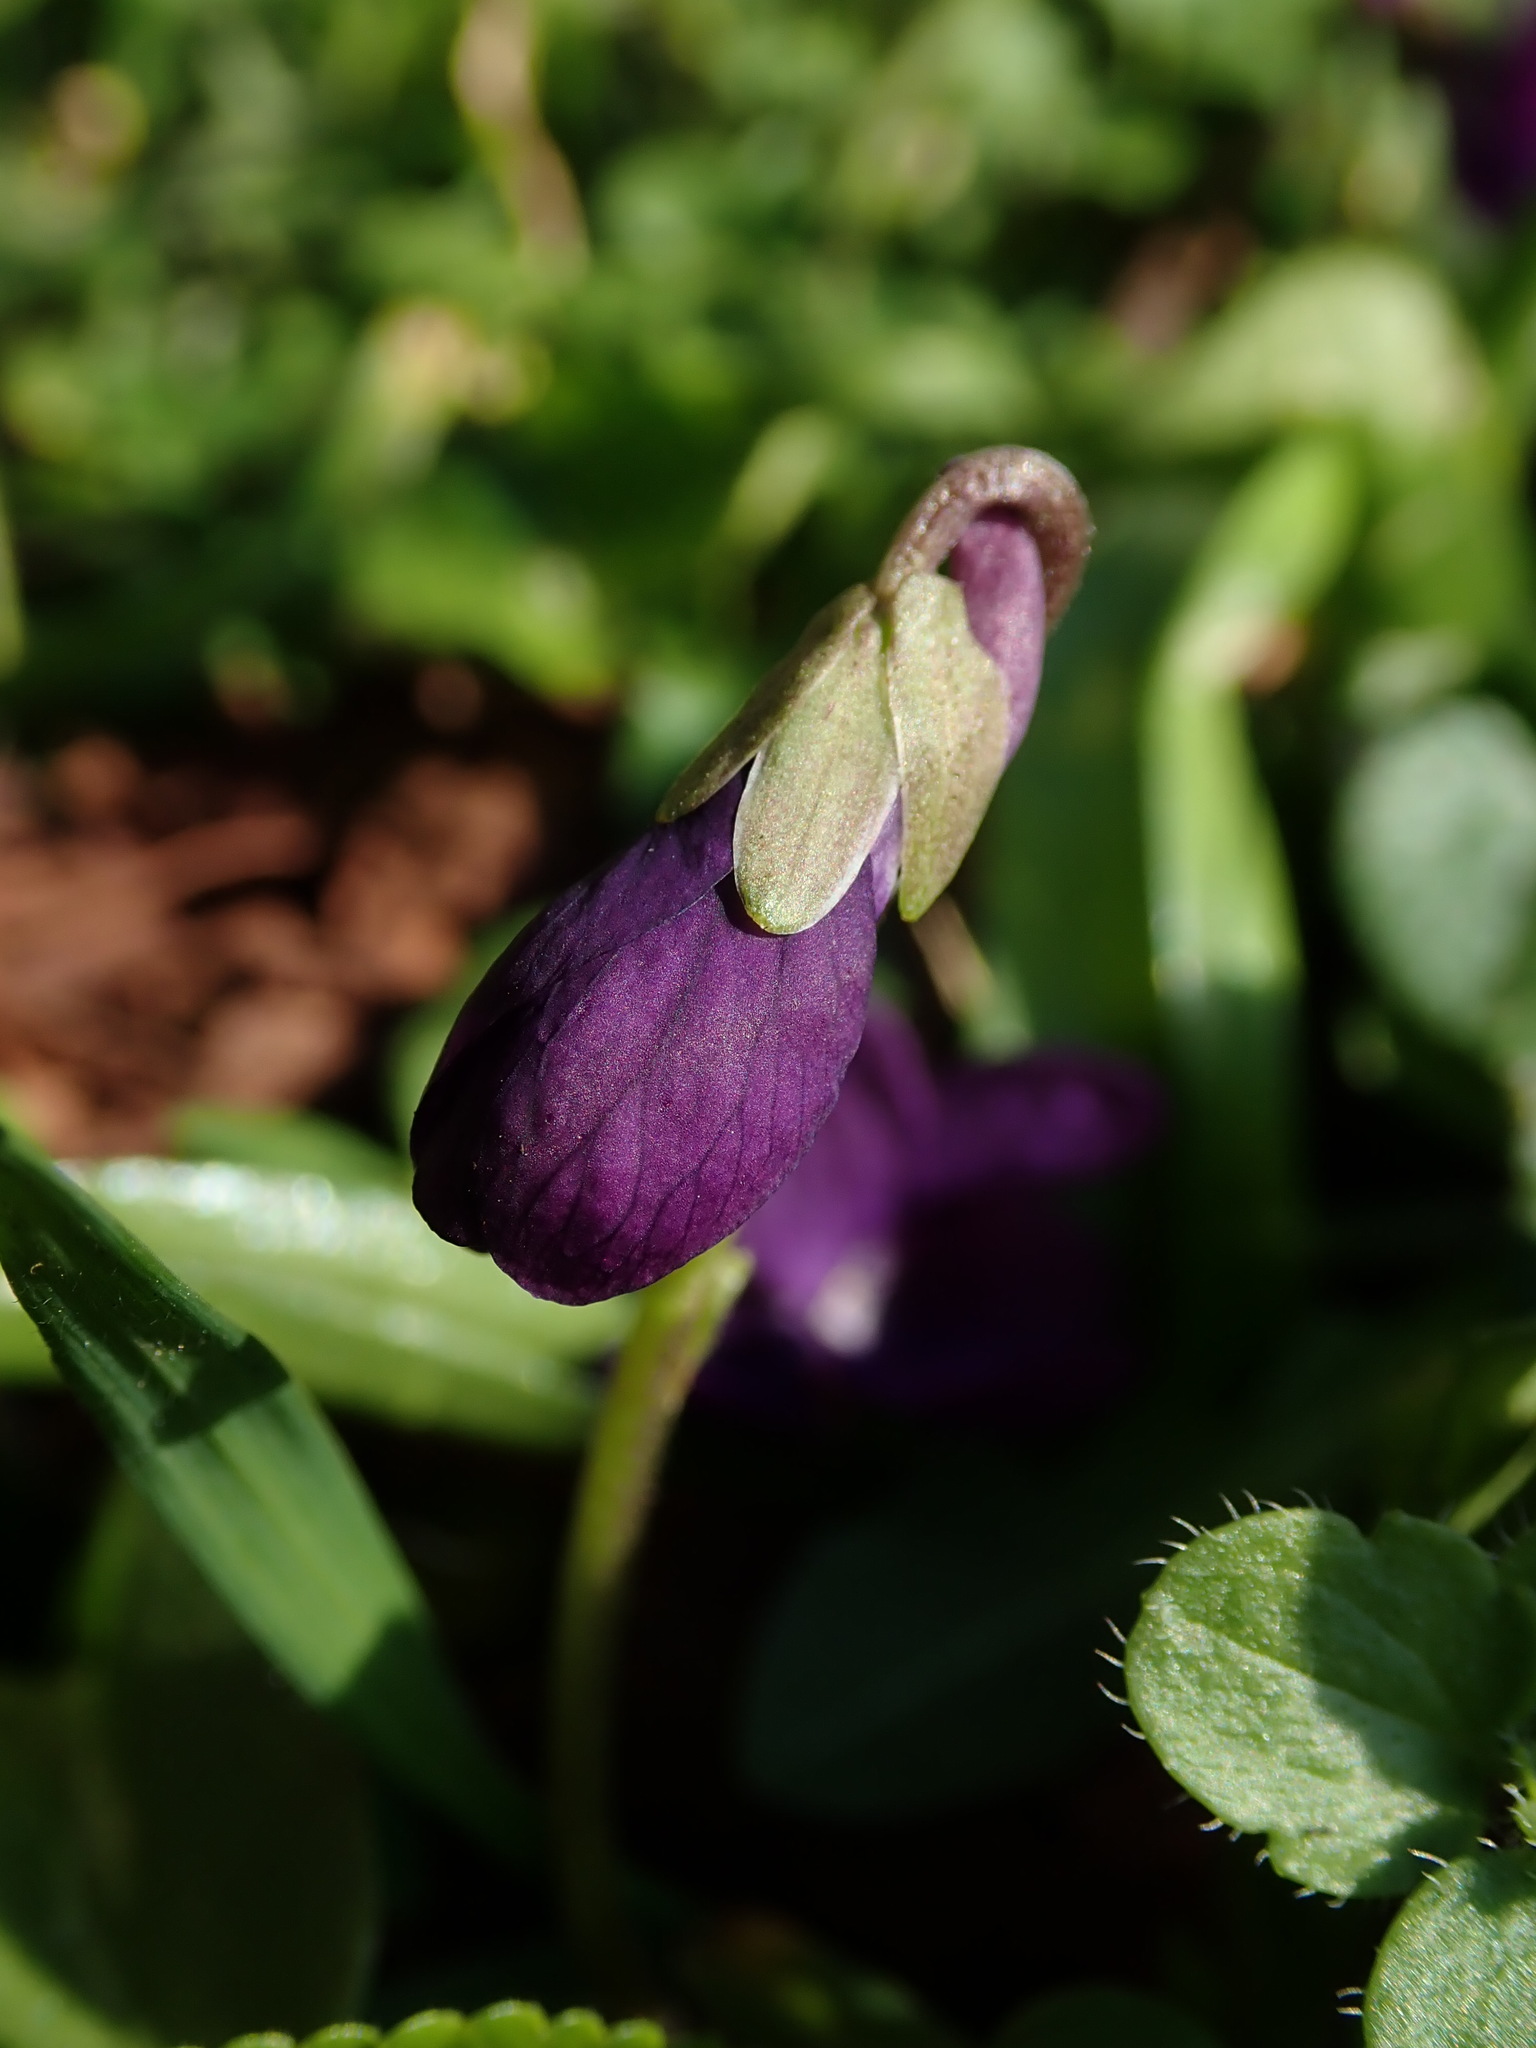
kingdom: Plantae
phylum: Tracheophyta
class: Magnoliopsida
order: Malpighiales
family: Violaceae
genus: Viola
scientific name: Viola odorata
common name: Sweet violet
